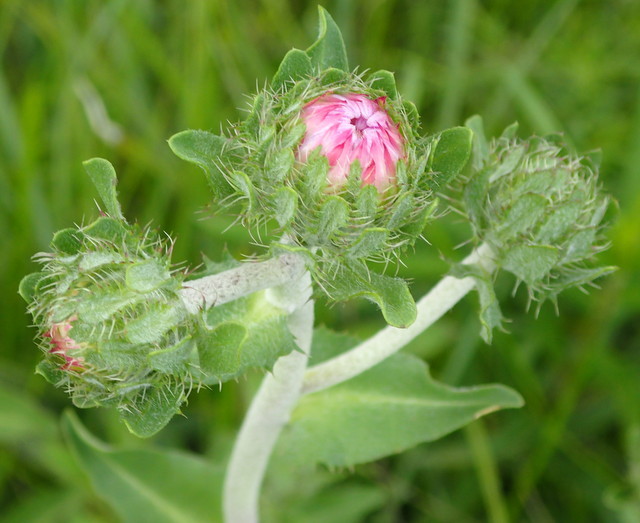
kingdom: Plantae
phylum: Tracheophyta
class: Magnoliopsida
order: Asterales
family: Asteraceae
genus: Stokesia
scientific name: Stokesia laevis
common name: Stokes'-aster
